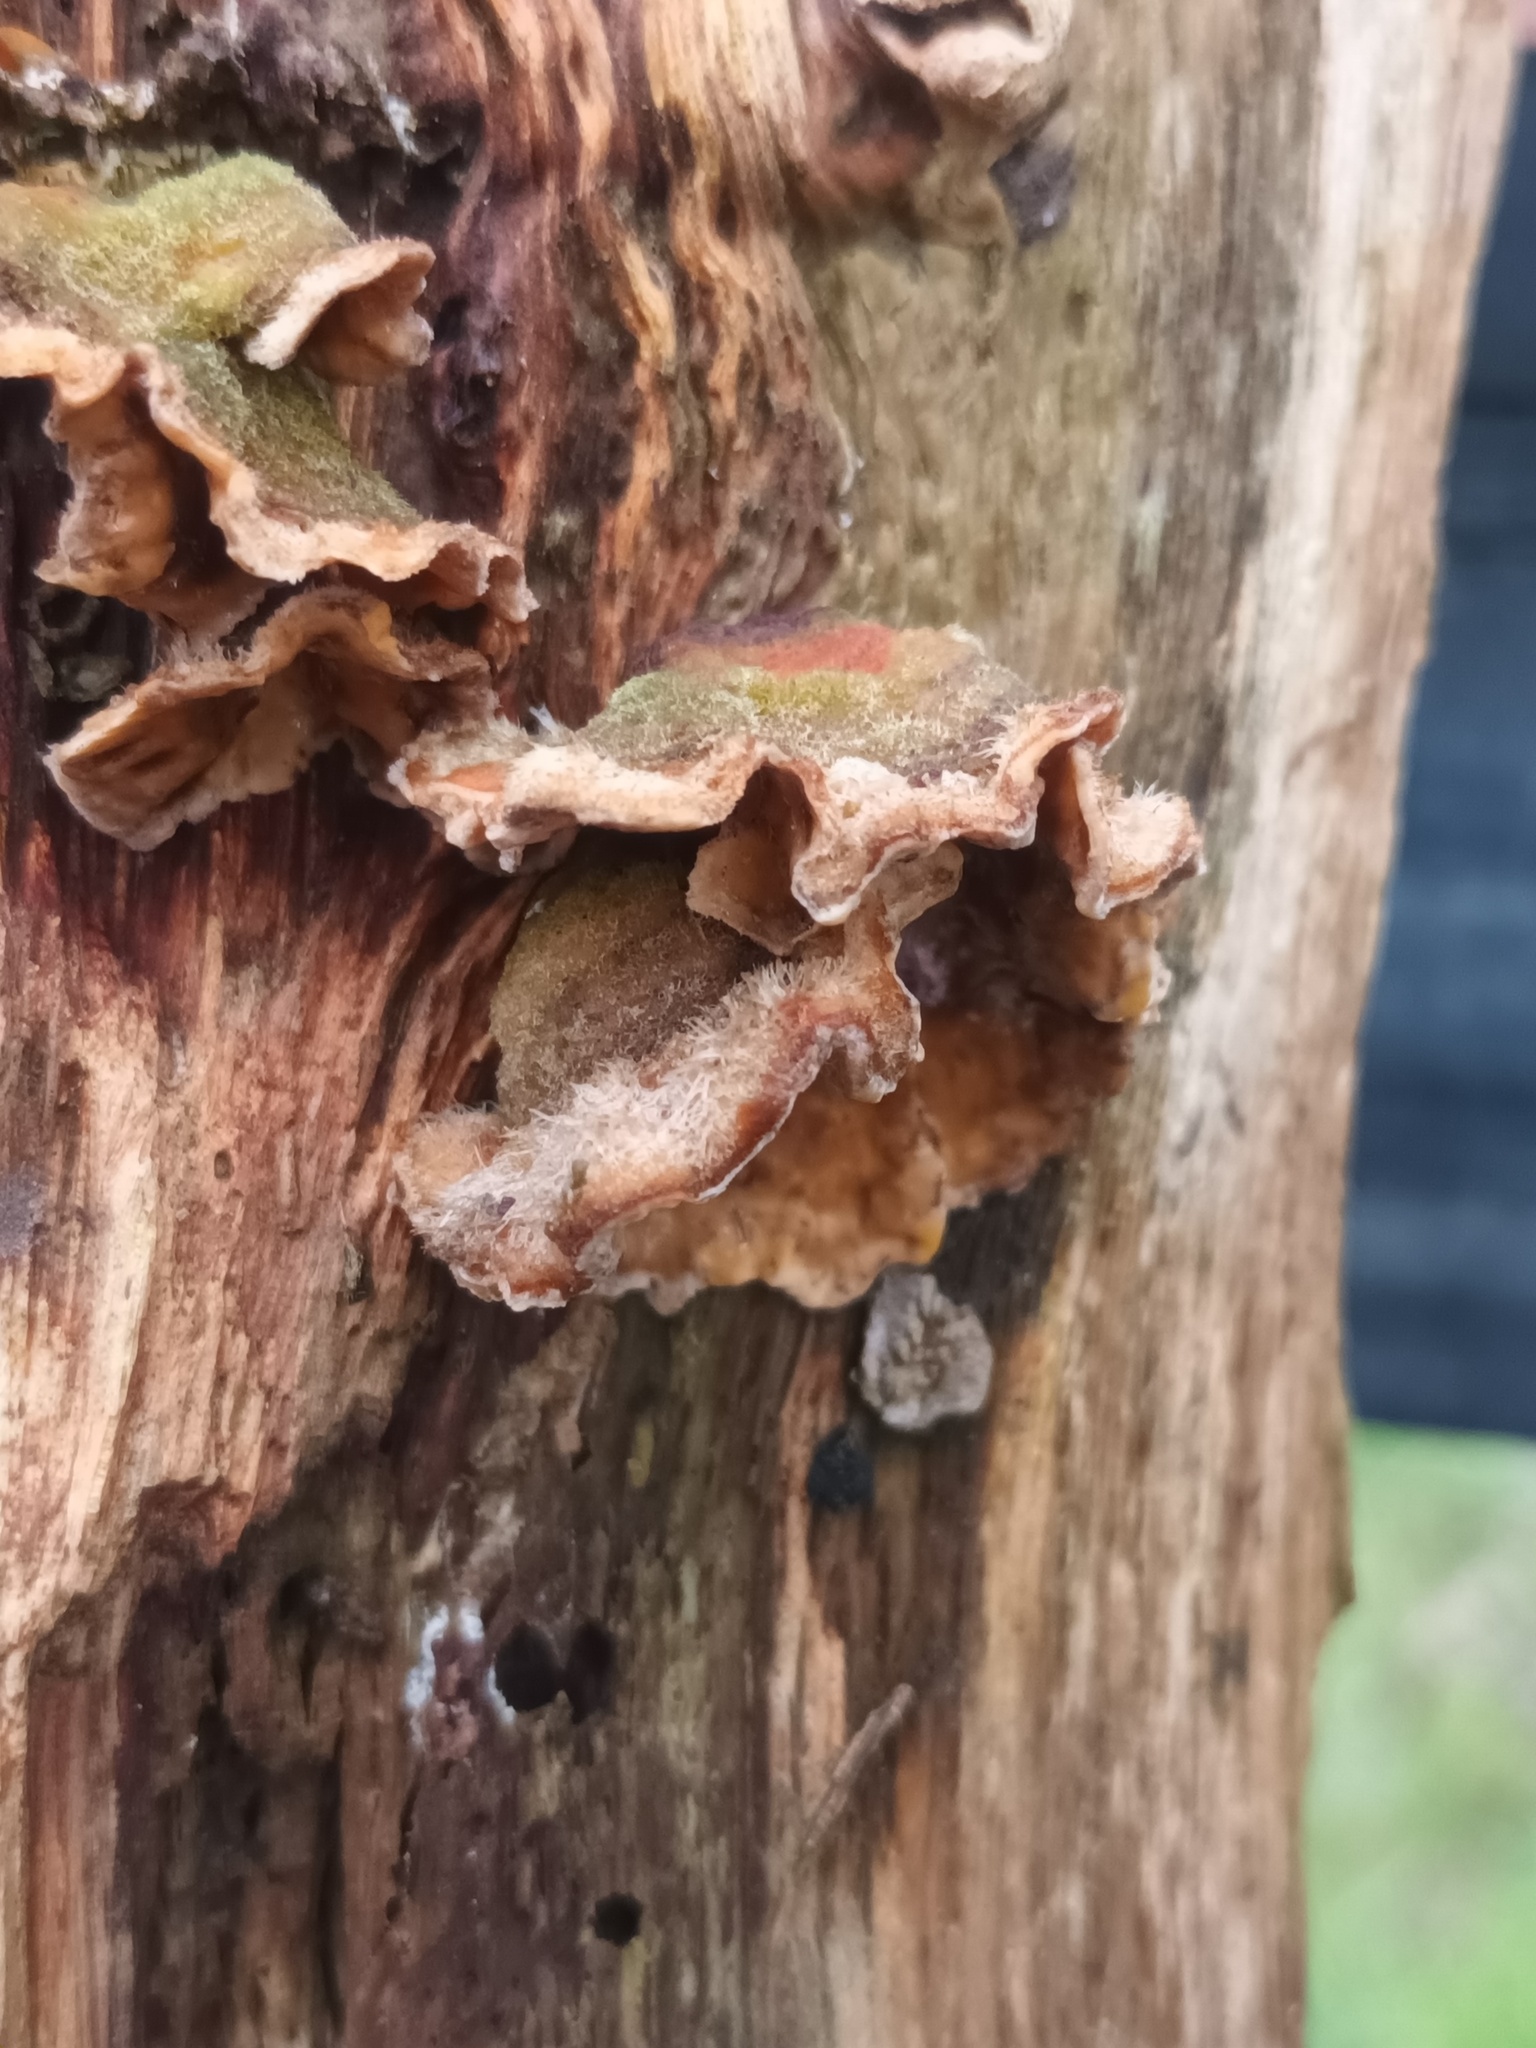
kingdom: Fungi
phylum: Basidiomycota
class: Agaricomycetes
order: Russulales
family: Stereaceae
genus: Stereum
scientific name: Stereum hirsutum
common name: Hairy curtain crust
